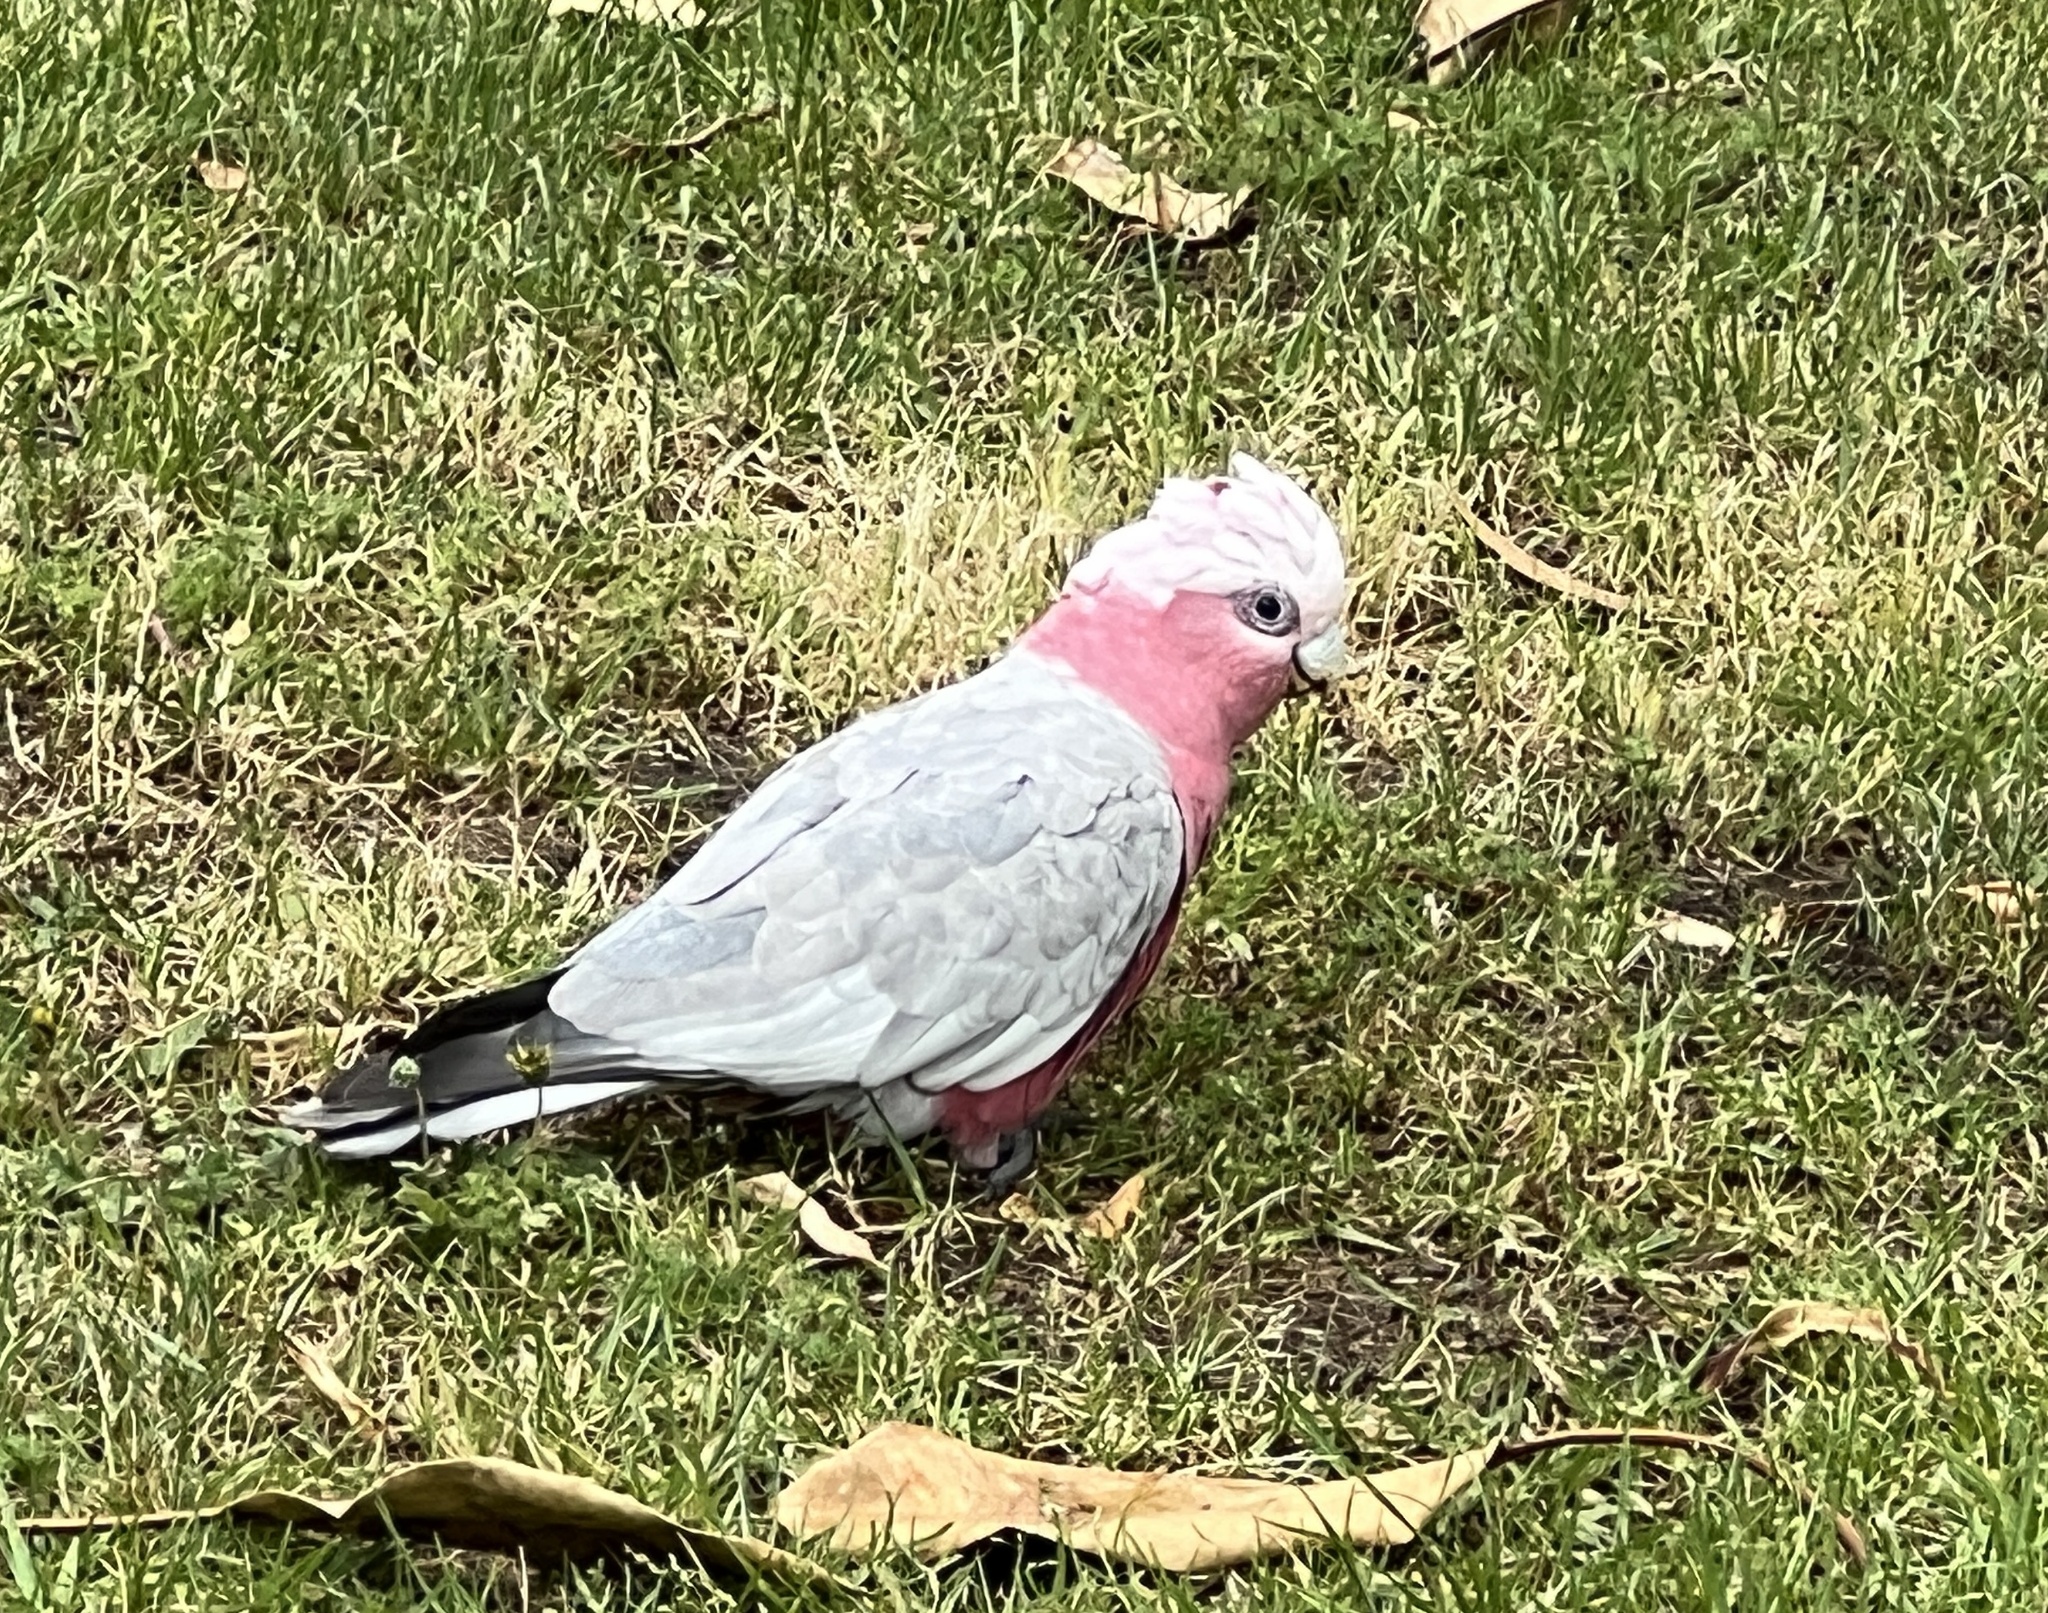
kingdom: Animalia
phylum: Chordata
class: Aves
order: Psittaciformes
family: Psittacidae
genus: Eolophus
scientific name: Eolophus roseicapilla
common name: Galah
